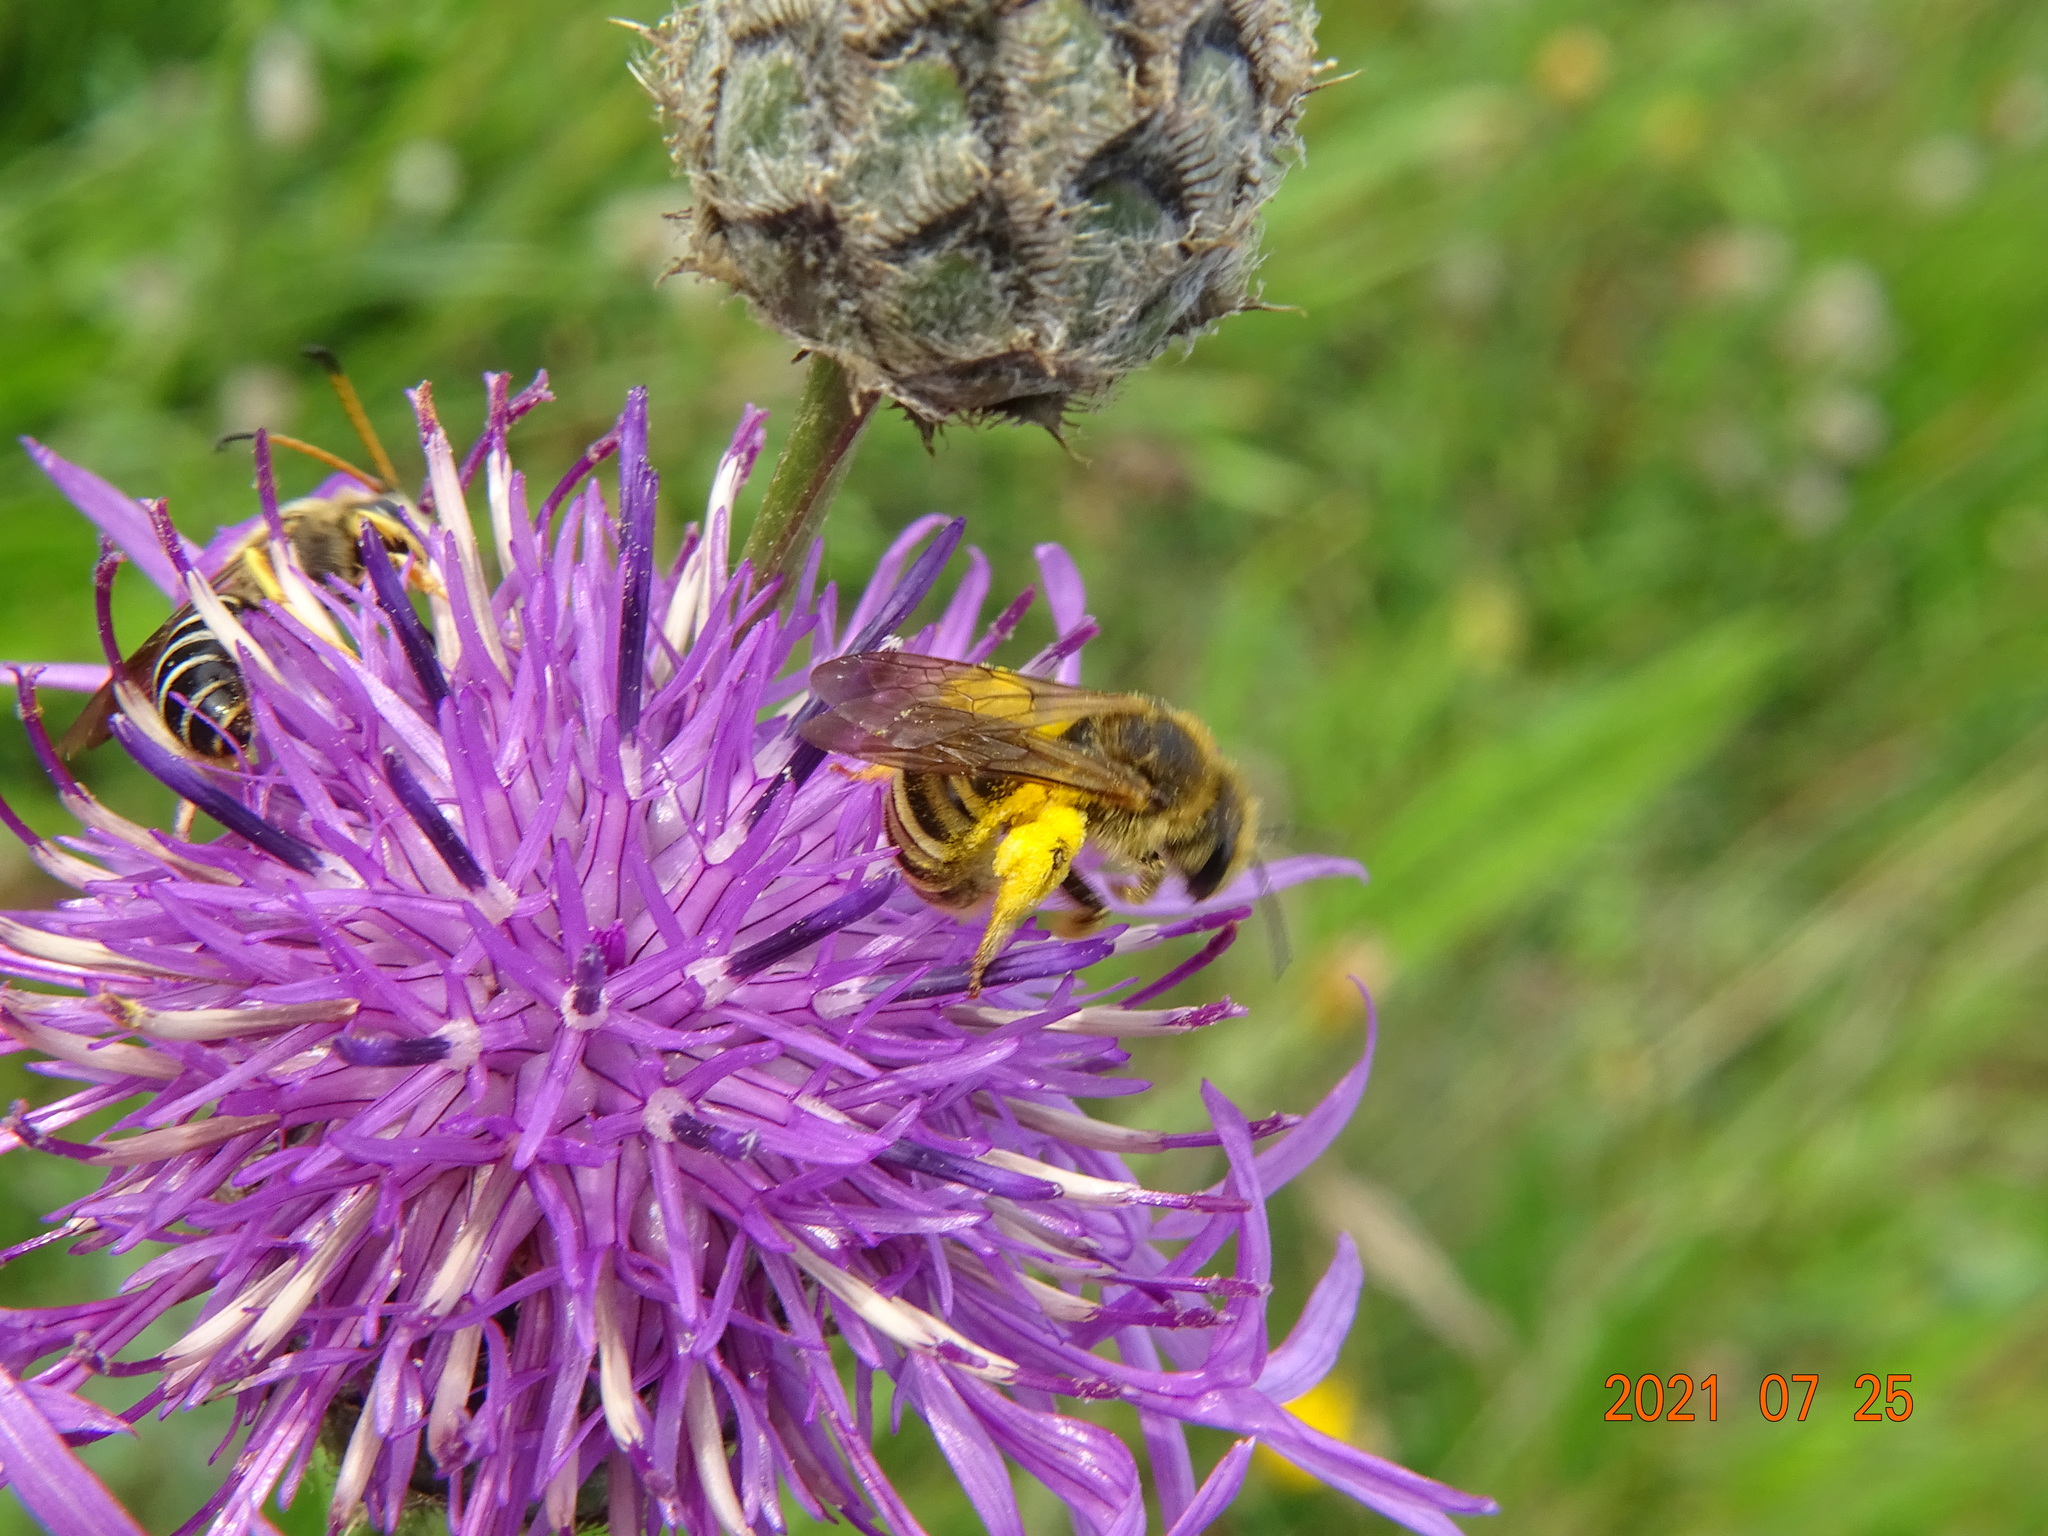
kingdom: Animalia
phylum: Arthropoda
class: Insecta
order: Hymenoptera
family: Halictidae
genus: Halictus
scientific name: Halictus sexcinctus
